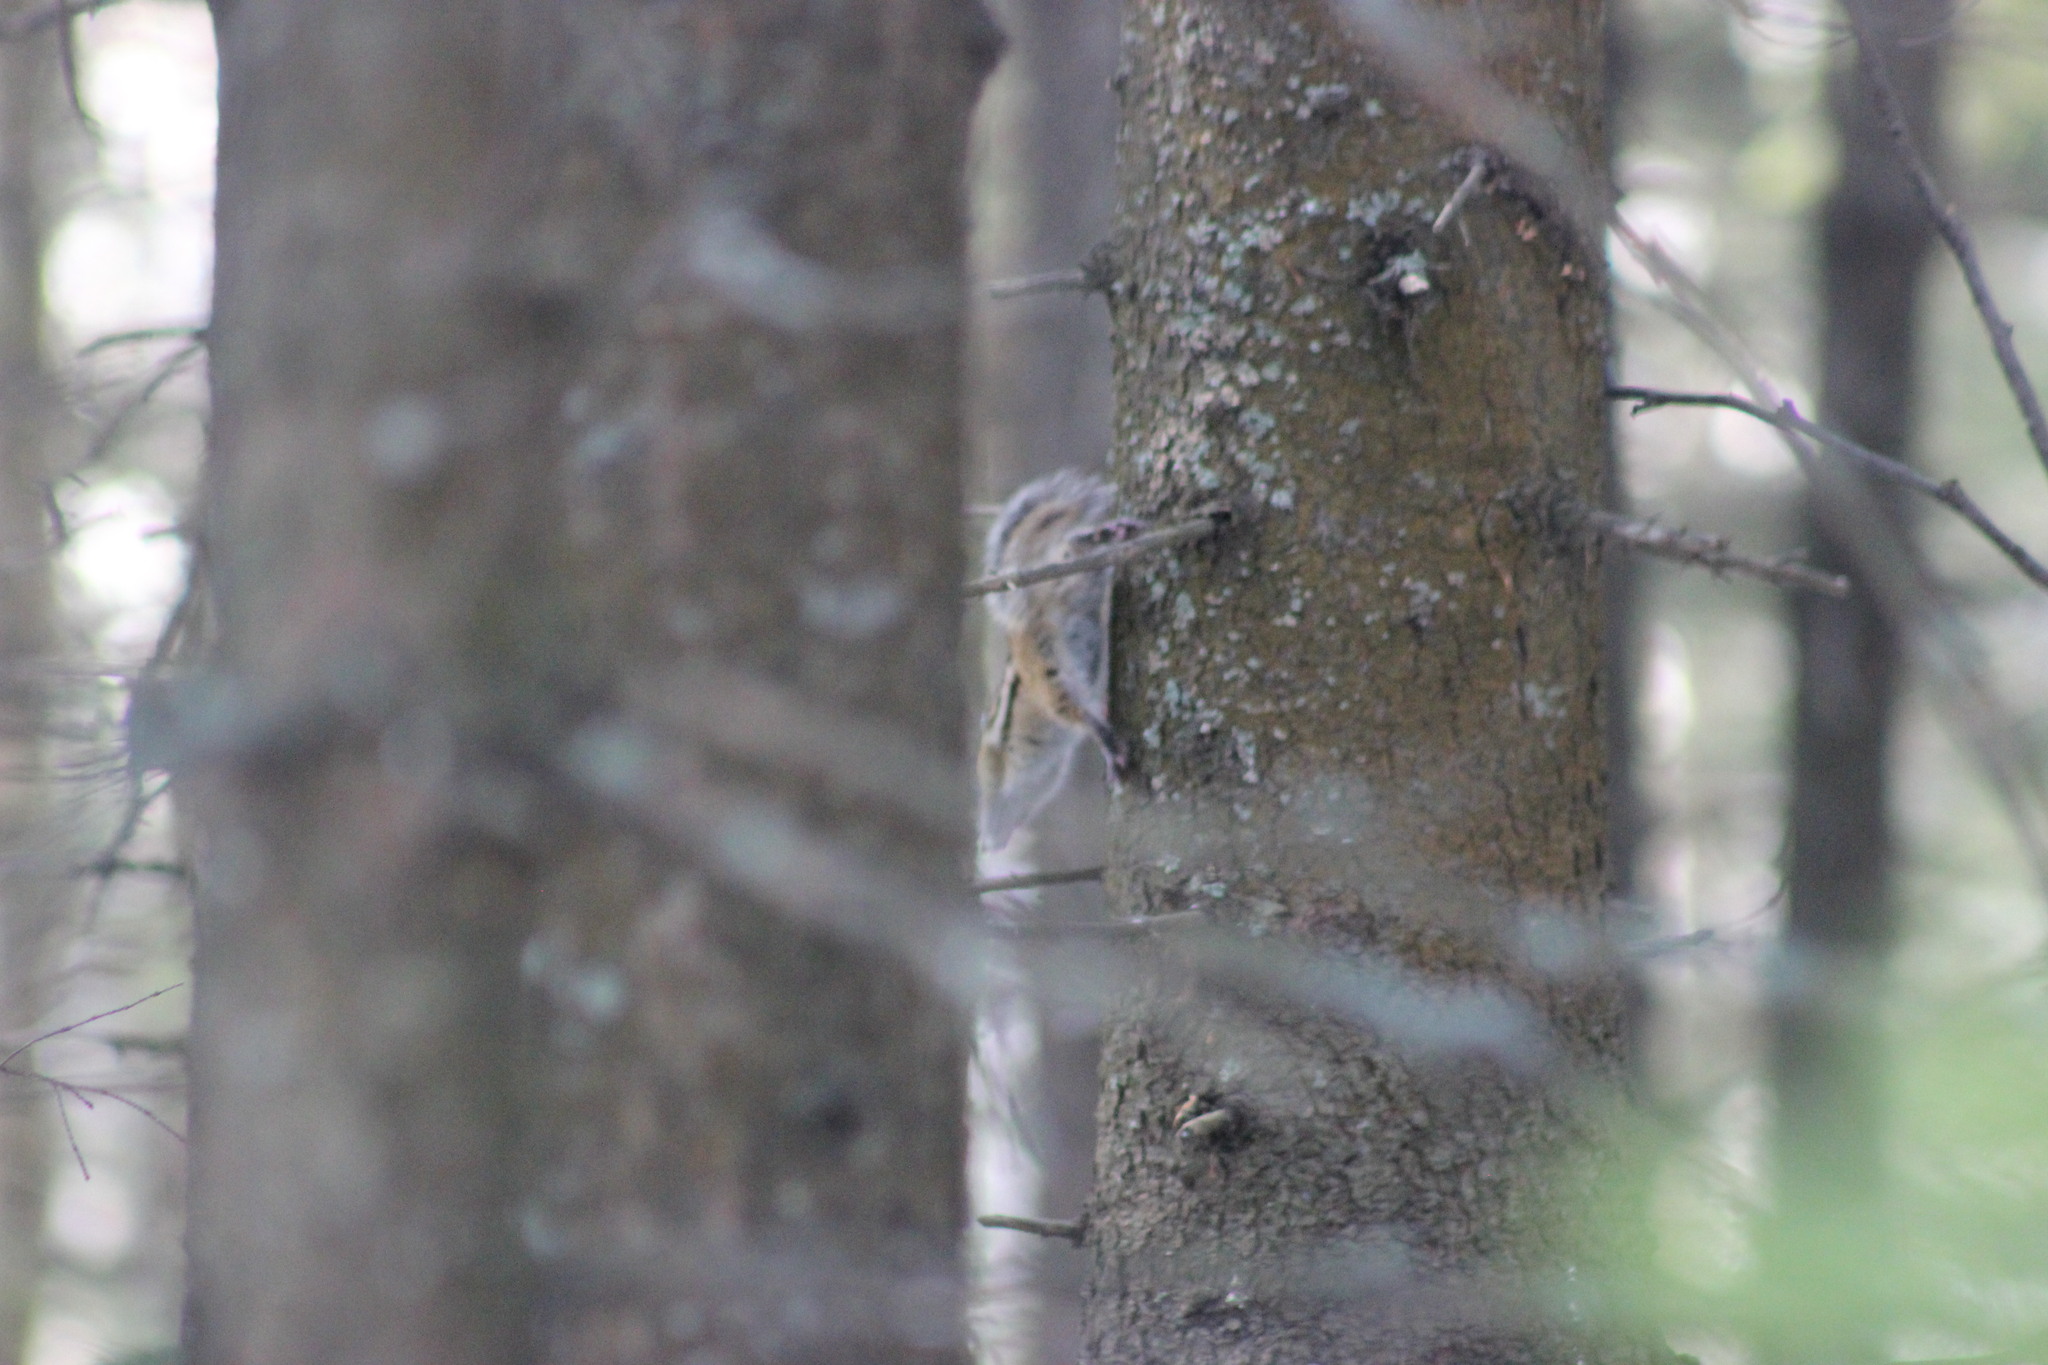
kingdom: Animalia
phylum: Chordata
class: Mammalia
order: Rodentia
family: Sciuridae
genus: Tamias
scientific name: Tamias sibiricus
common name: Siberian chipmunk
